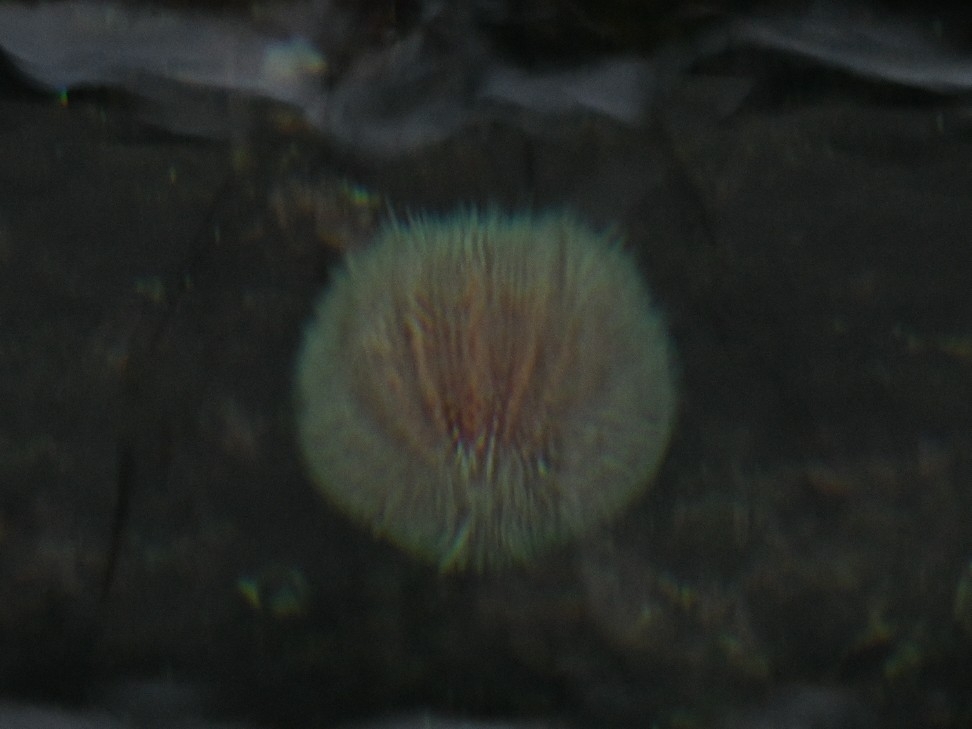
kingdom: Animalia
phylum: Echinodermata
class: Echinoidea
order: Camarodonta
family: Echinidae
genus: Echinus
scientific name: Echinus esculentus
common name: Edible sea urchin
